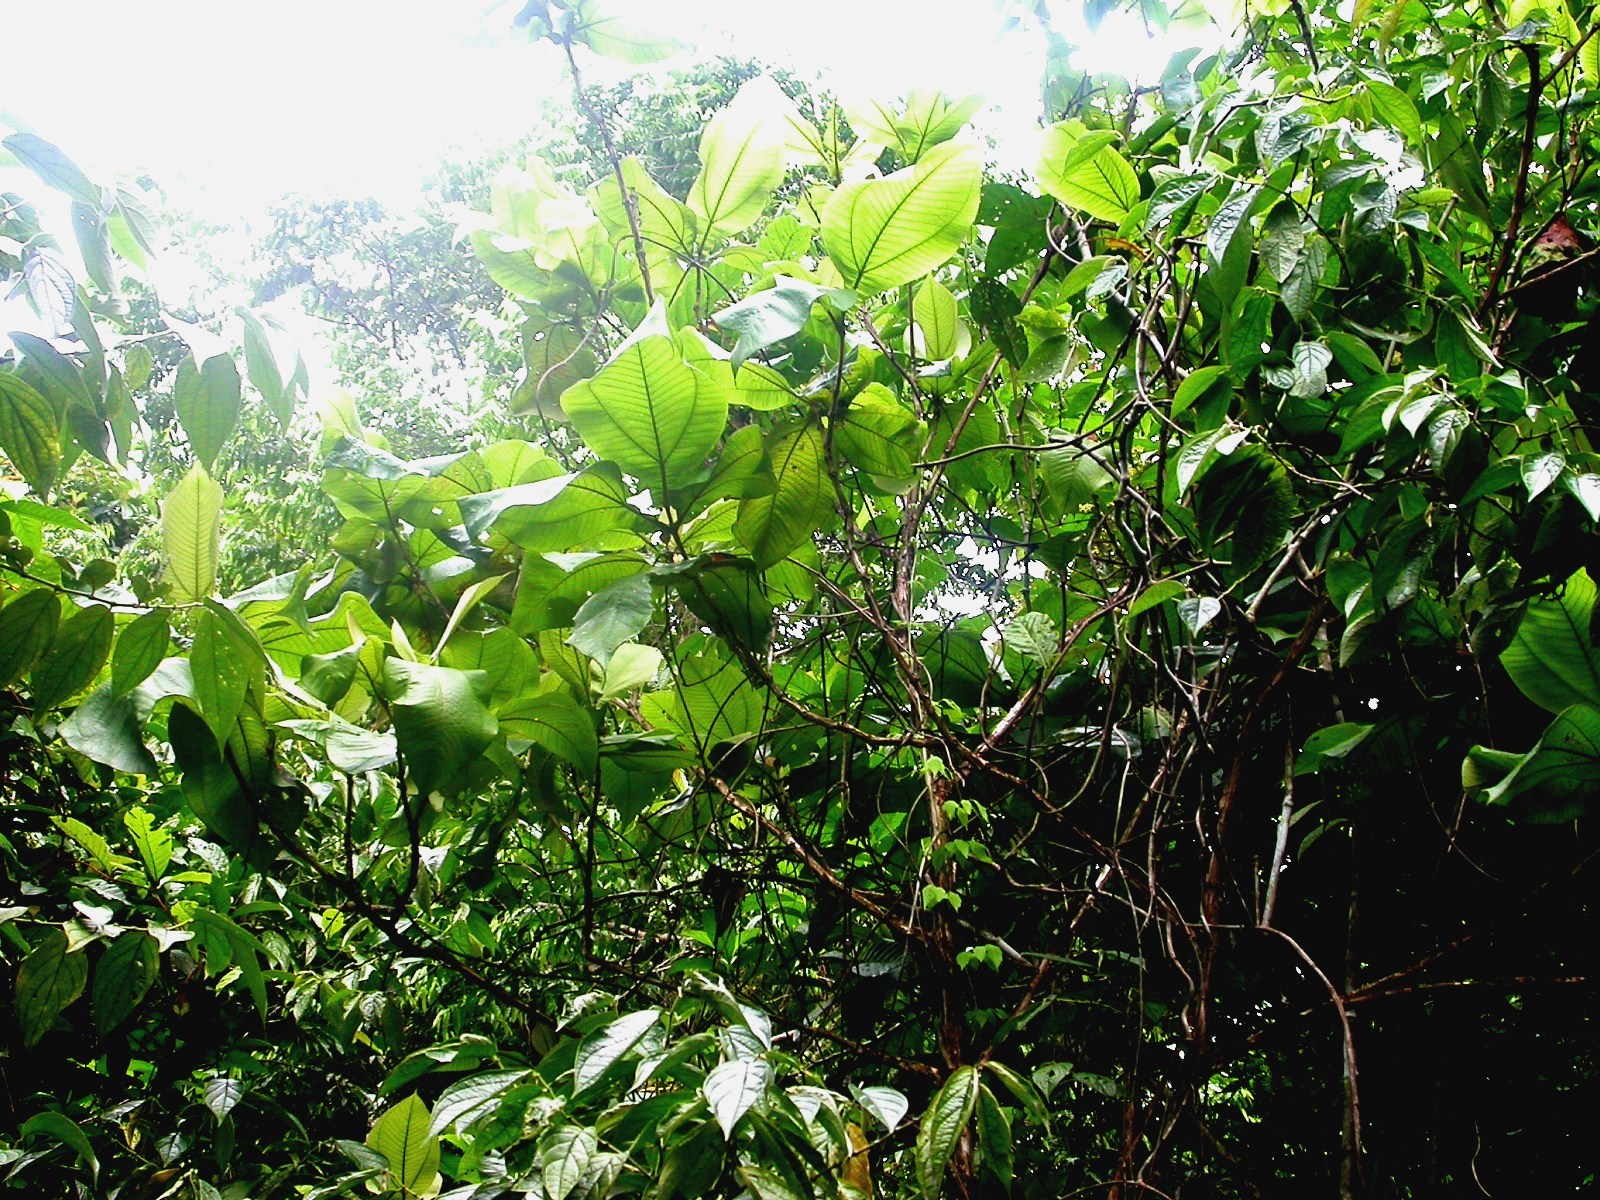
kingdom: Plantae
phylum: Tracheophyta
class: Magnoliopsida
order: Myrtales
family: Melastomataceae
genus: Miconia
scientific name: Miconia tomentosa
